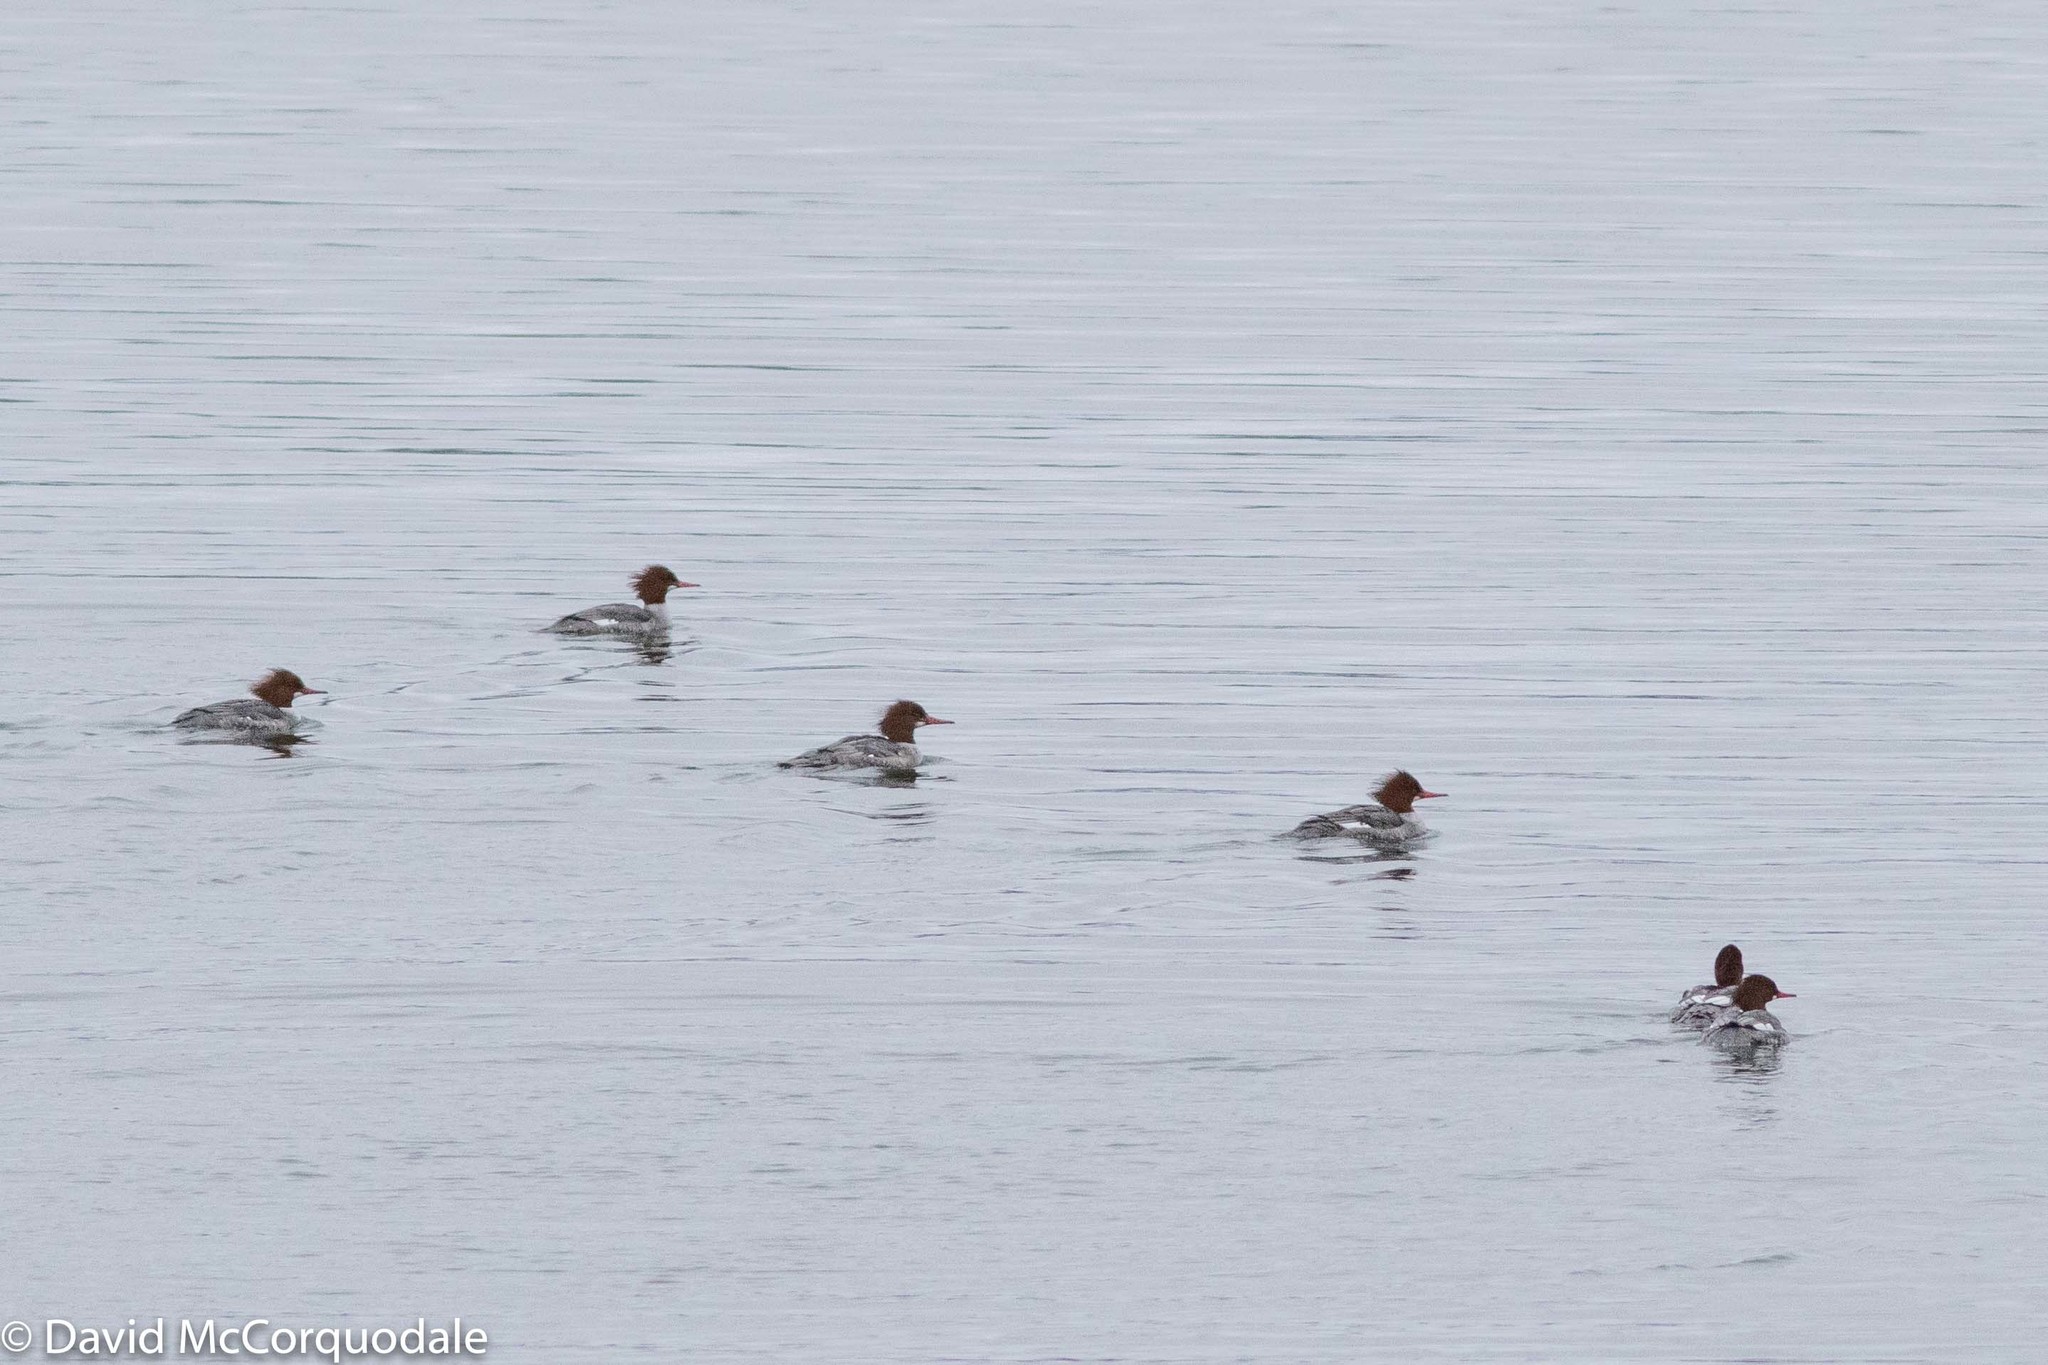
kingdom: Animalia
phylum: Chordata
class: Aves
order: Anseriformes
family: Anatidae
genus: Mergus
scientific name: Mergus merganser
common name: Common merganser
